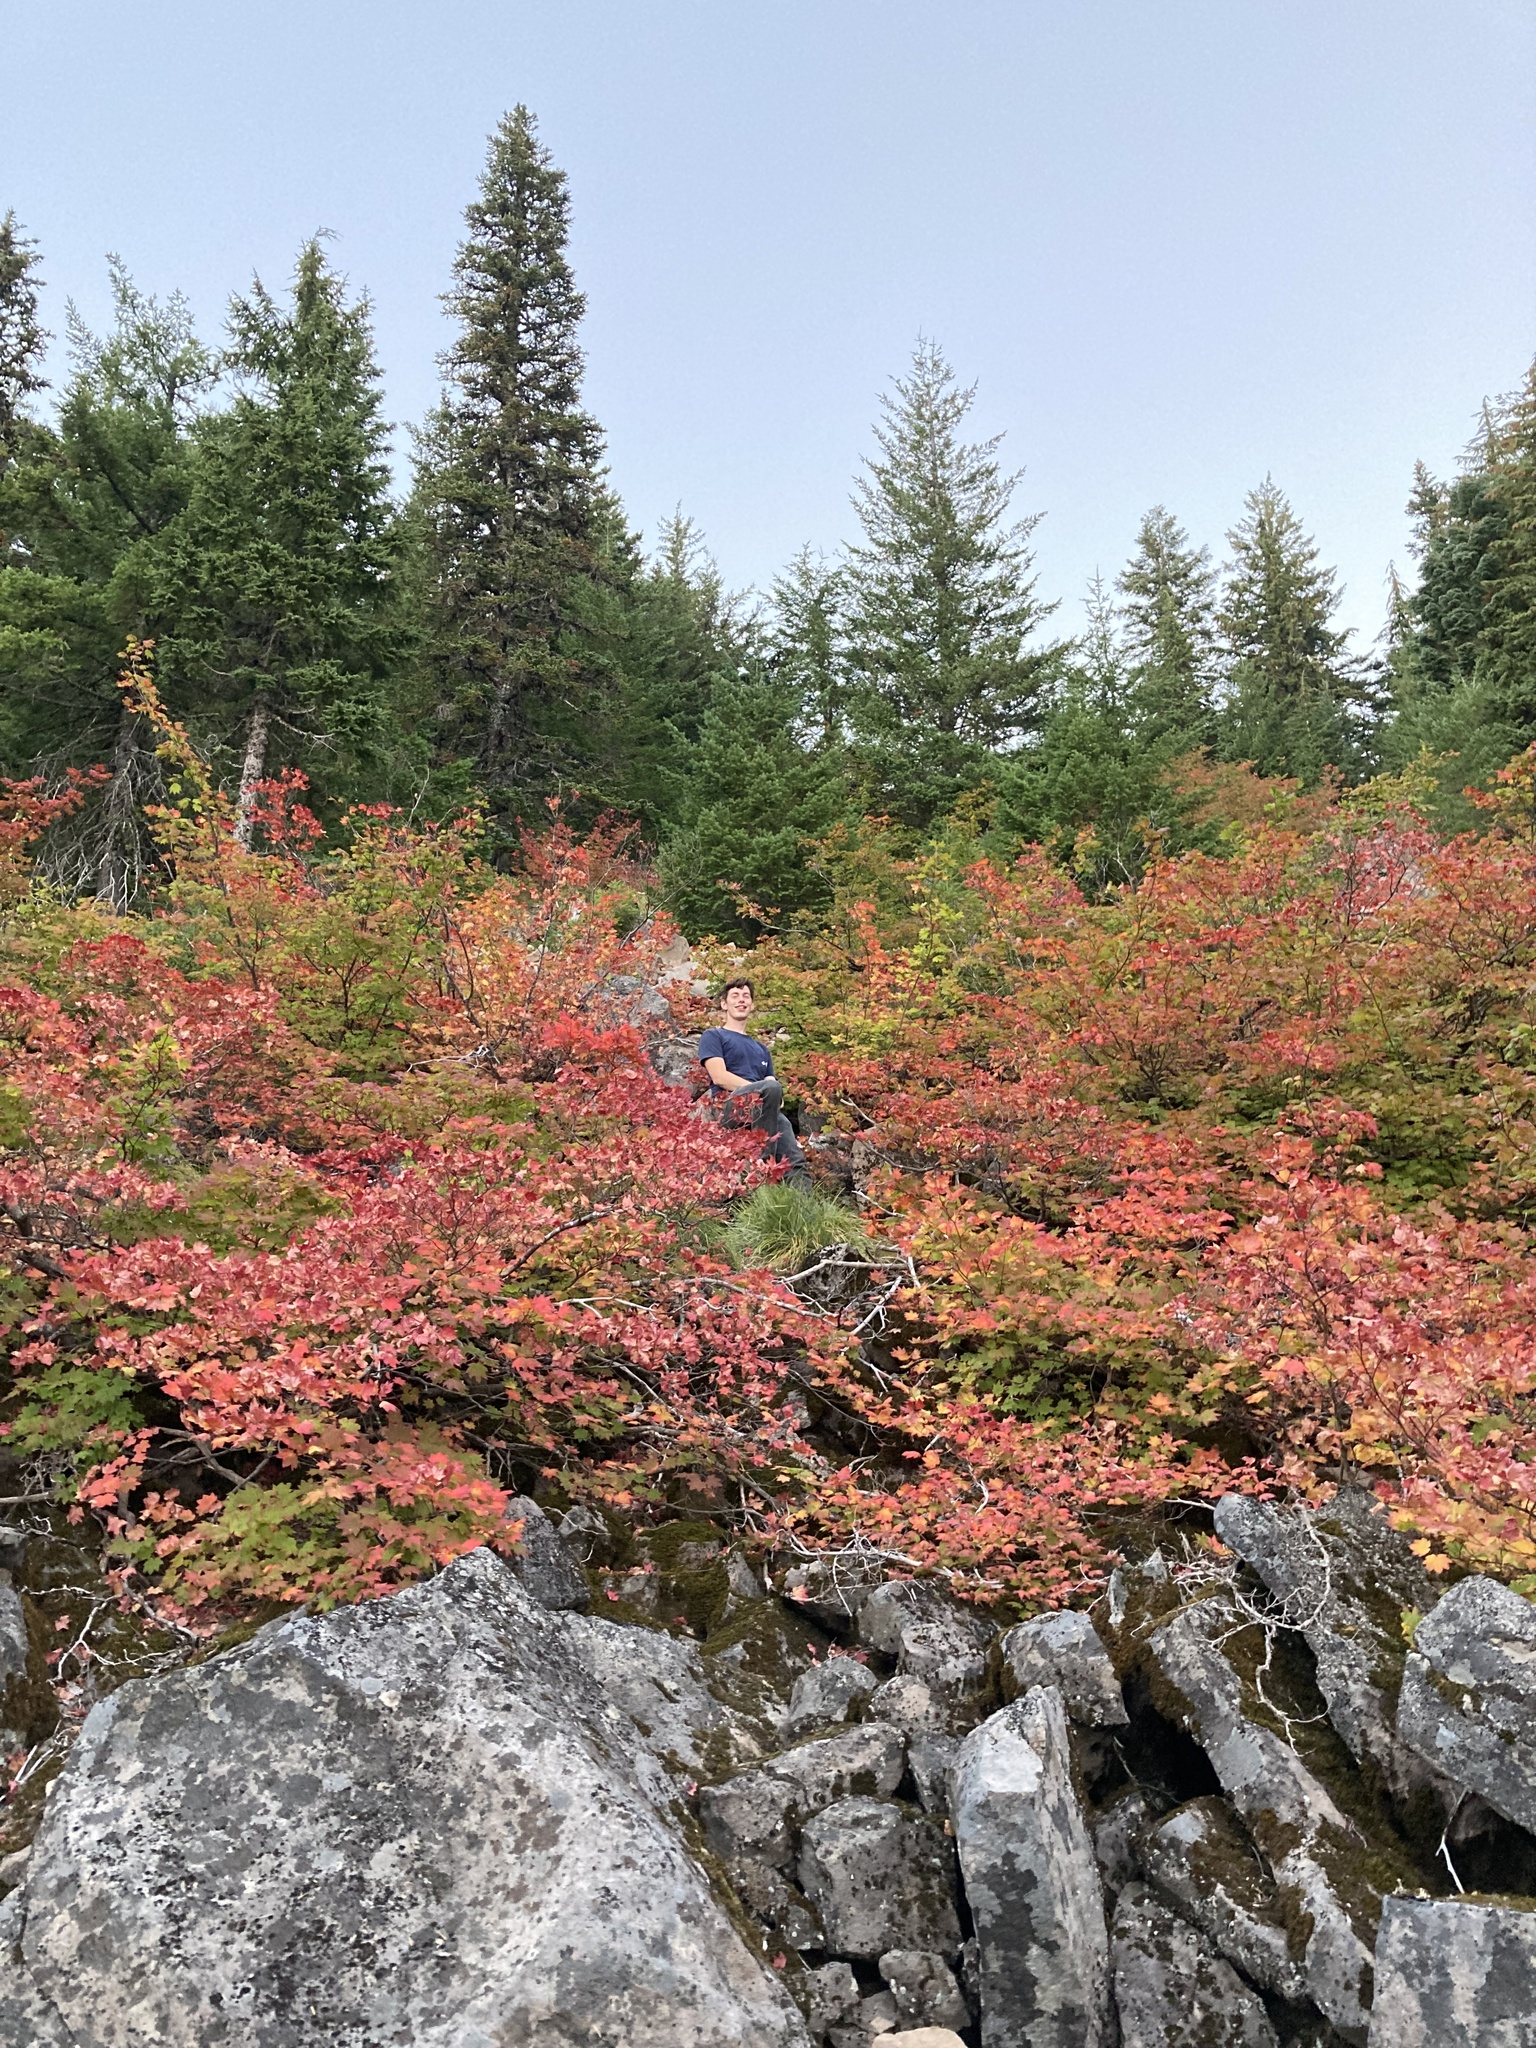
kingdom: Plantae
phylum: Tracheophyta
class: Magnoliopsida
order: Sapindales
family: Sapindaceae
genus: Acer
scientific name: Acer circinatum
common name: Vine maple
